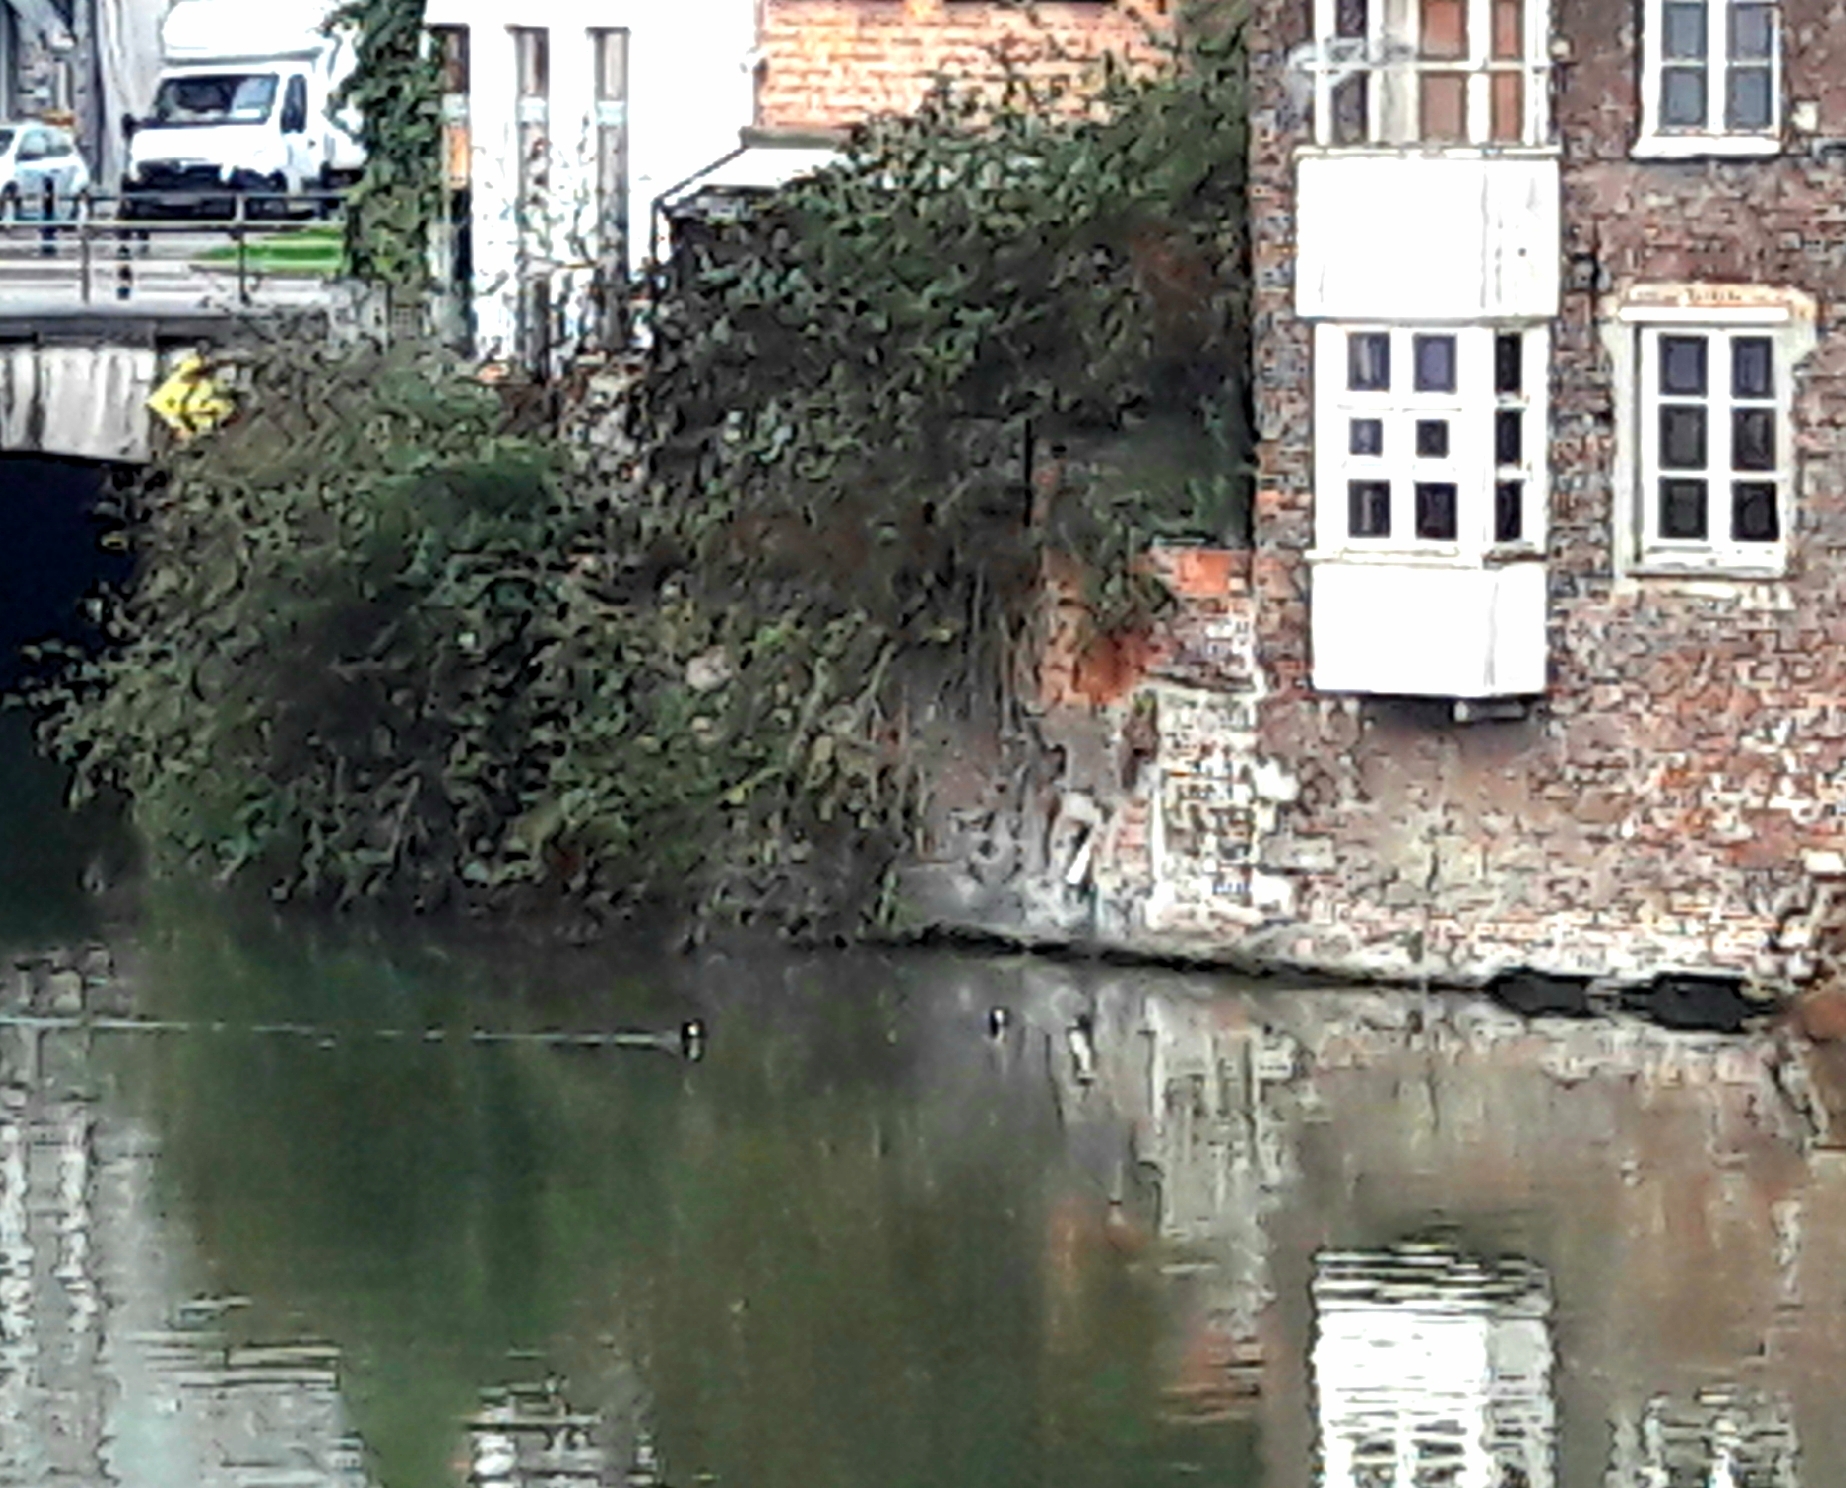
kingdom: Animalia
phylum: Chordata
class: Aves
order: Gruiformes
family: Rallidae
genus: Fulica
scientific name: Fulica atra
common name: Eurasian coot
